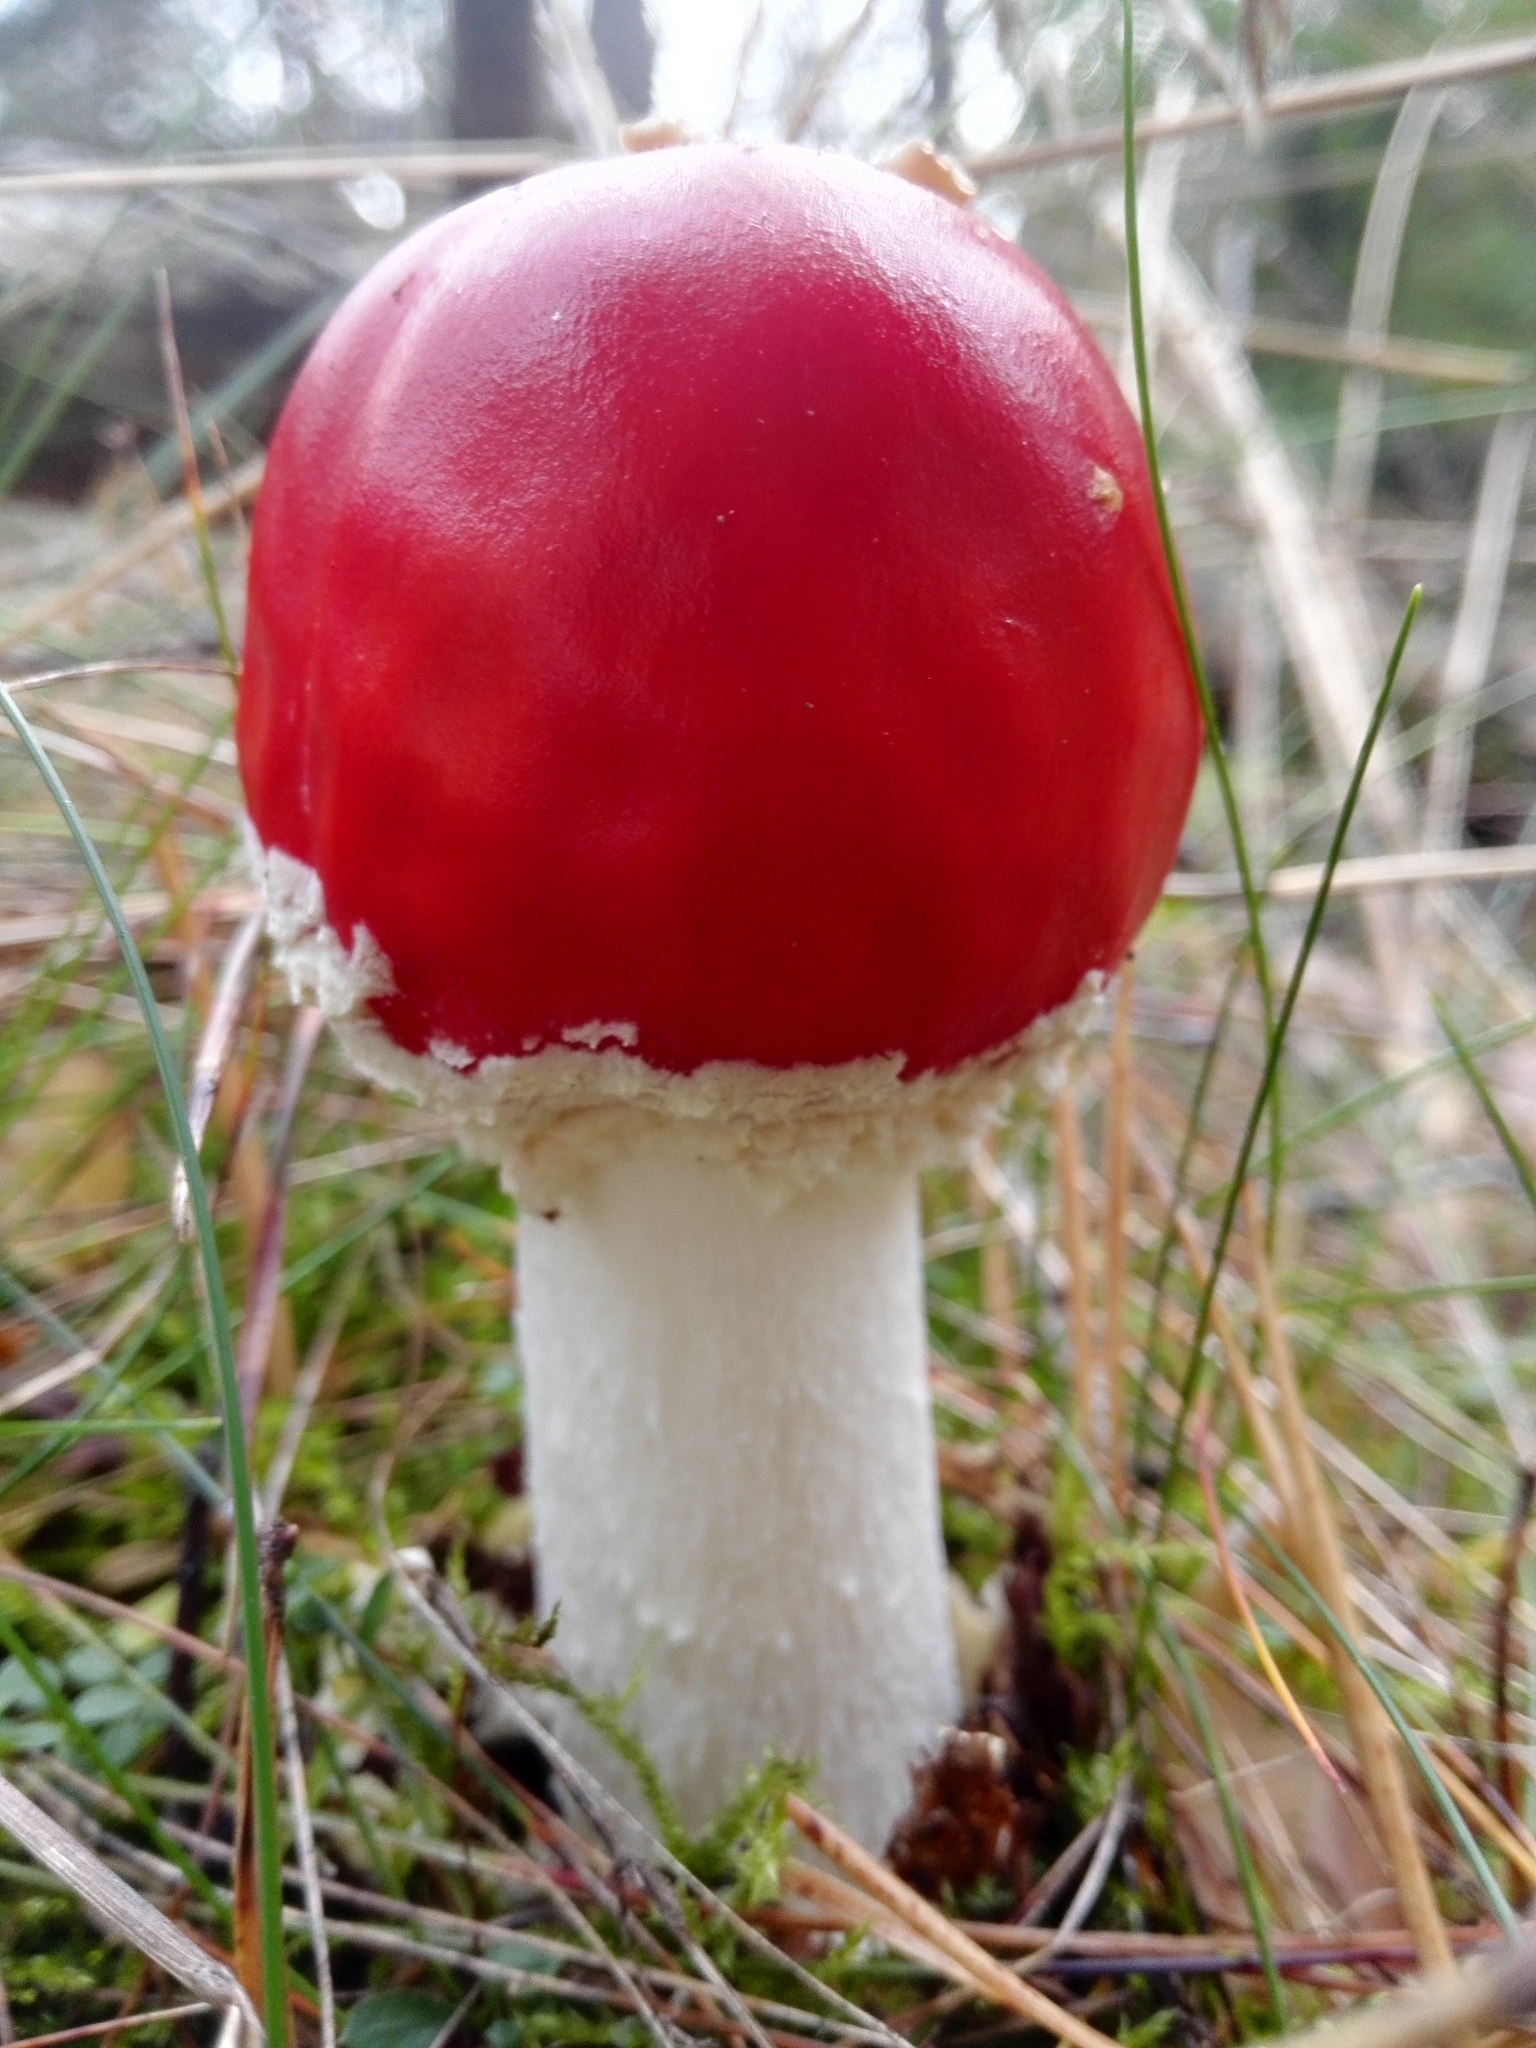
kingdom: Fungi
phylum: Basidiomycota
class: Agaricomycetes
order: Agaricales
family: Amanitaceae
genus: Amanita
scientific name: Amanita muscaria
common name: Fly agaric
